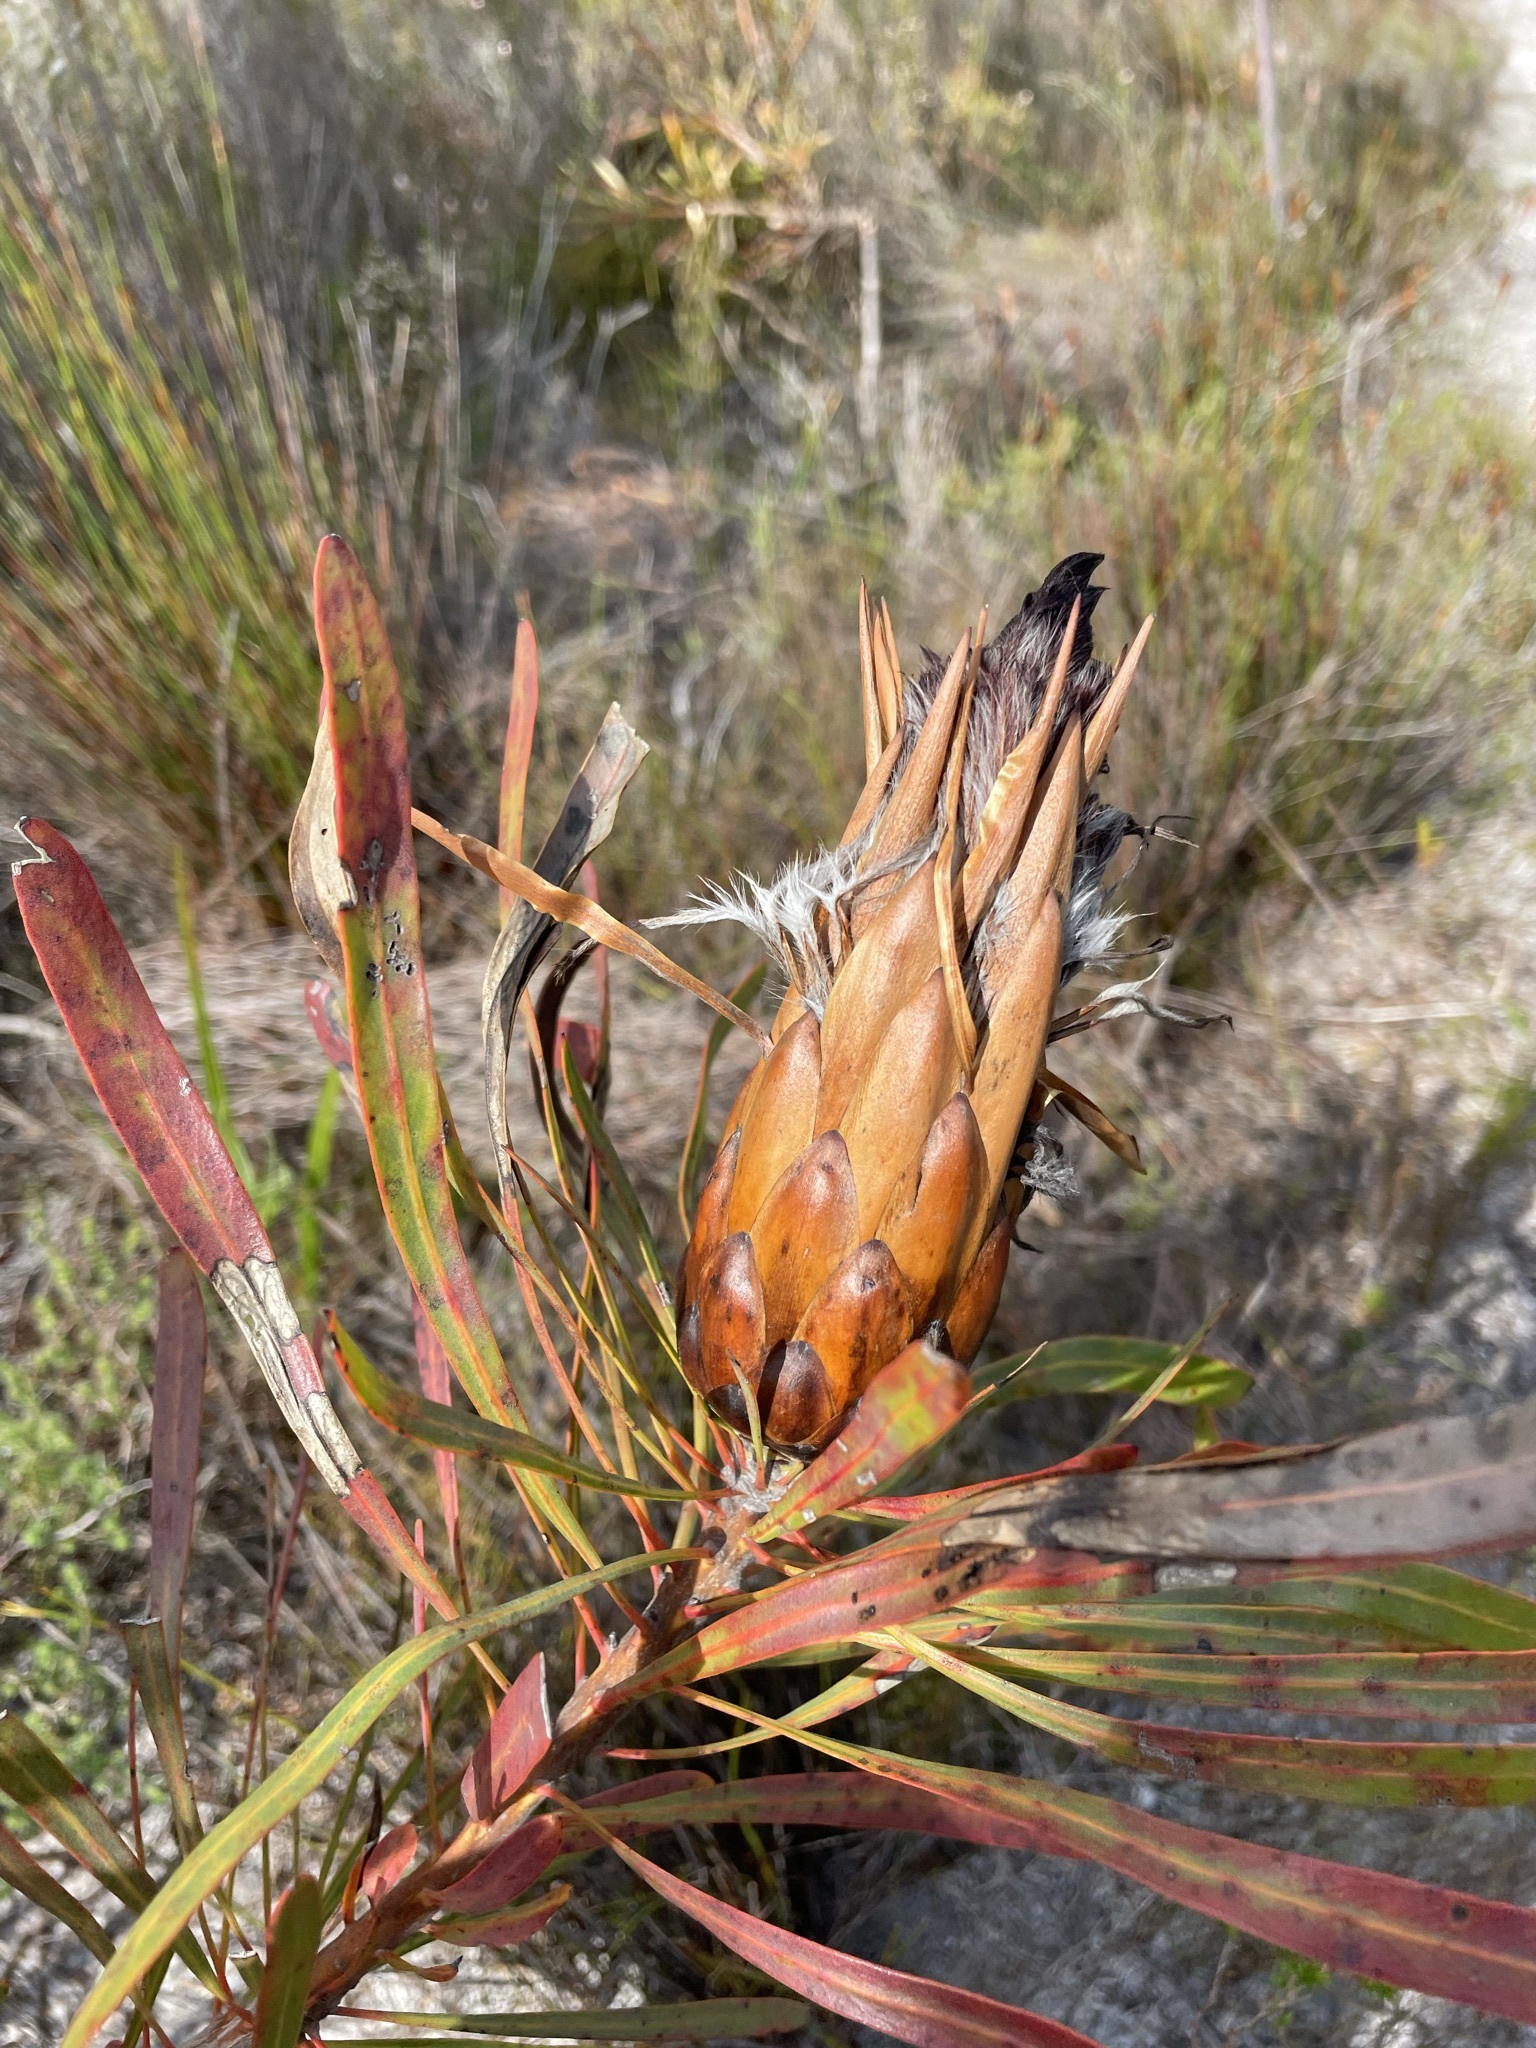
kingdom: Plantae
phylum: Tracheophyta
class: Magnoliopsida
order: Proteales
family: Proteaceae
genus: Protea
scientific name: Protea longifolia
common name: Long-leaf sugarbush
